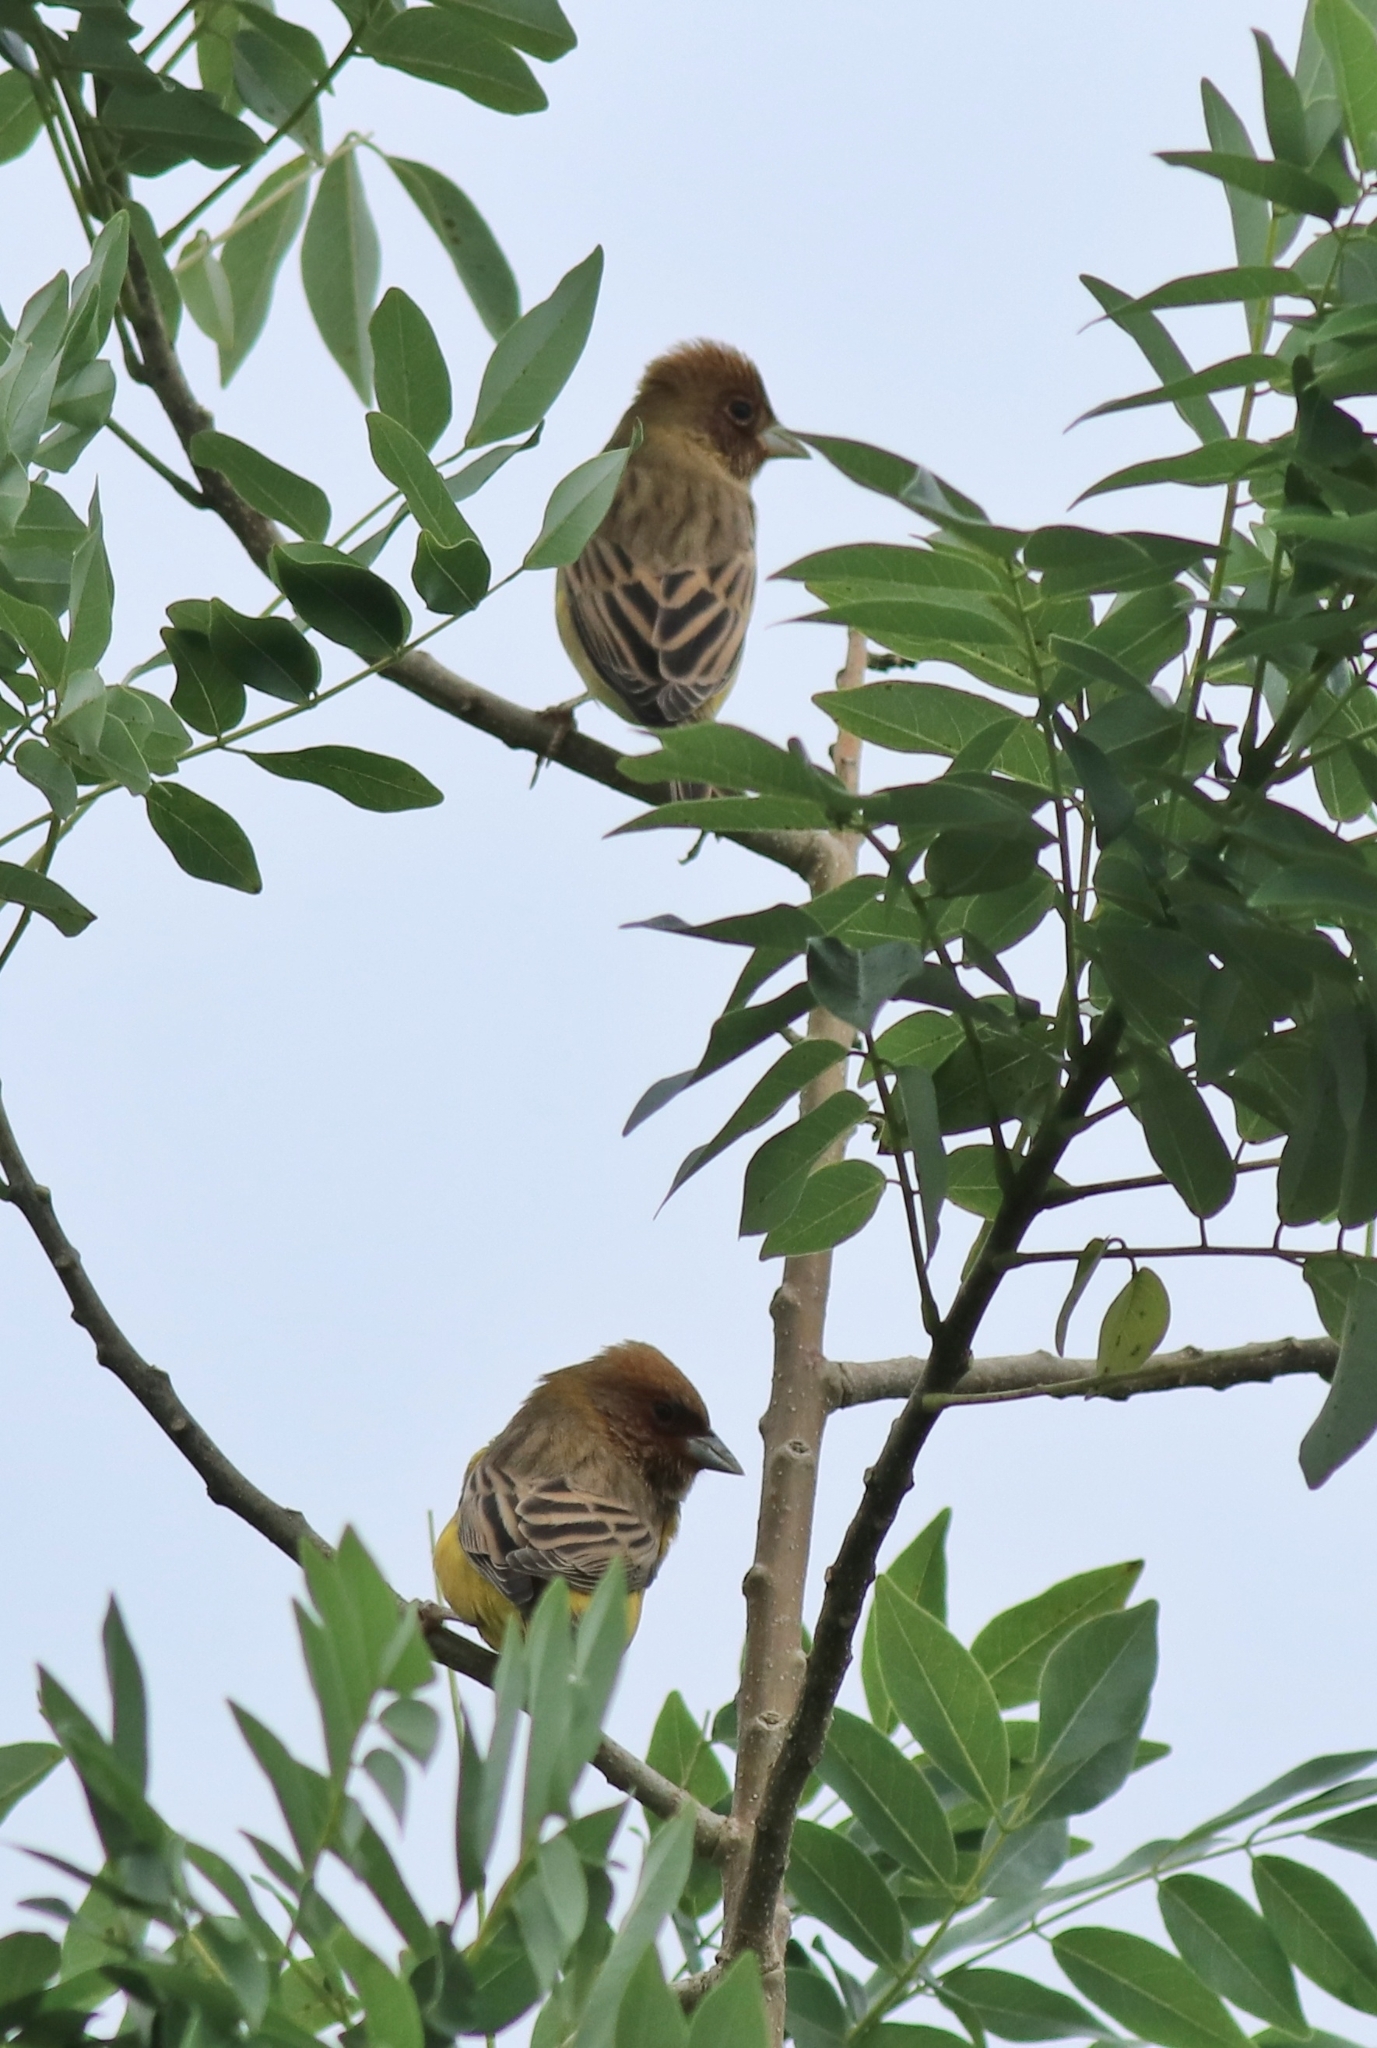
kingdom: Animalia
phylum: Chordata
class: Aves
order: Passeriformes
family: Emberizidae
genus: Emberiza
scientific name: Emberiza bruniceps
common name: Red-headed bunting
